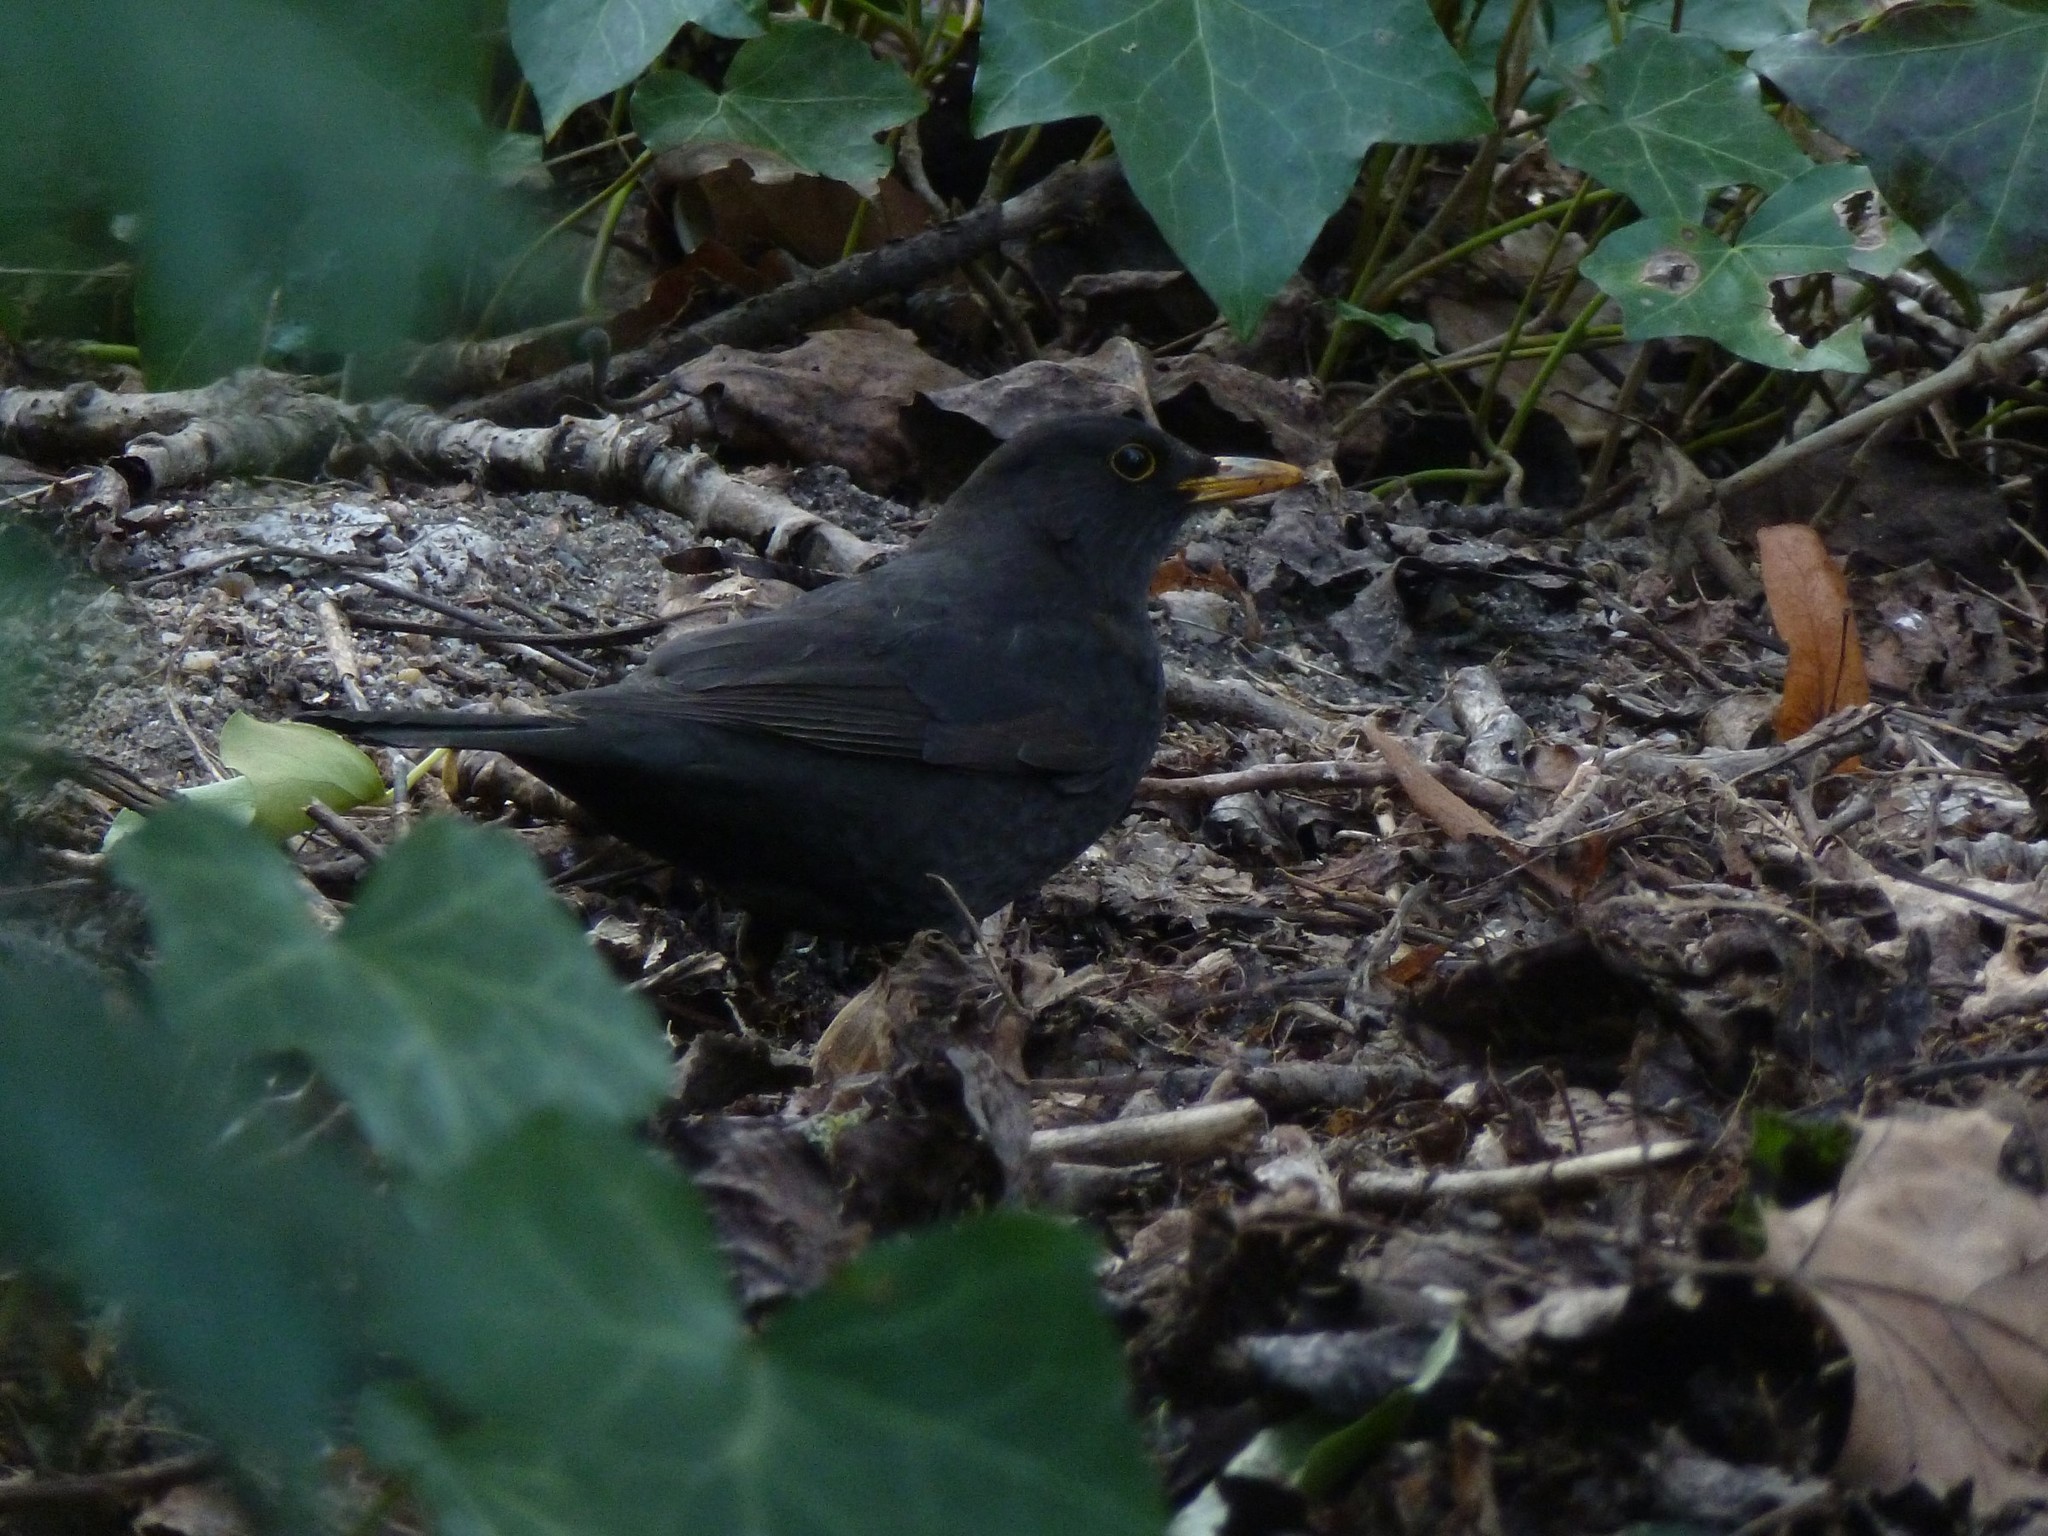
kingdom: Animalia
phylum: Chordata
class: Aves
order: Passeriformes
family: Turdidae
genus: Turdus
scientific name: Turdus merula
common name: Common blackbird
